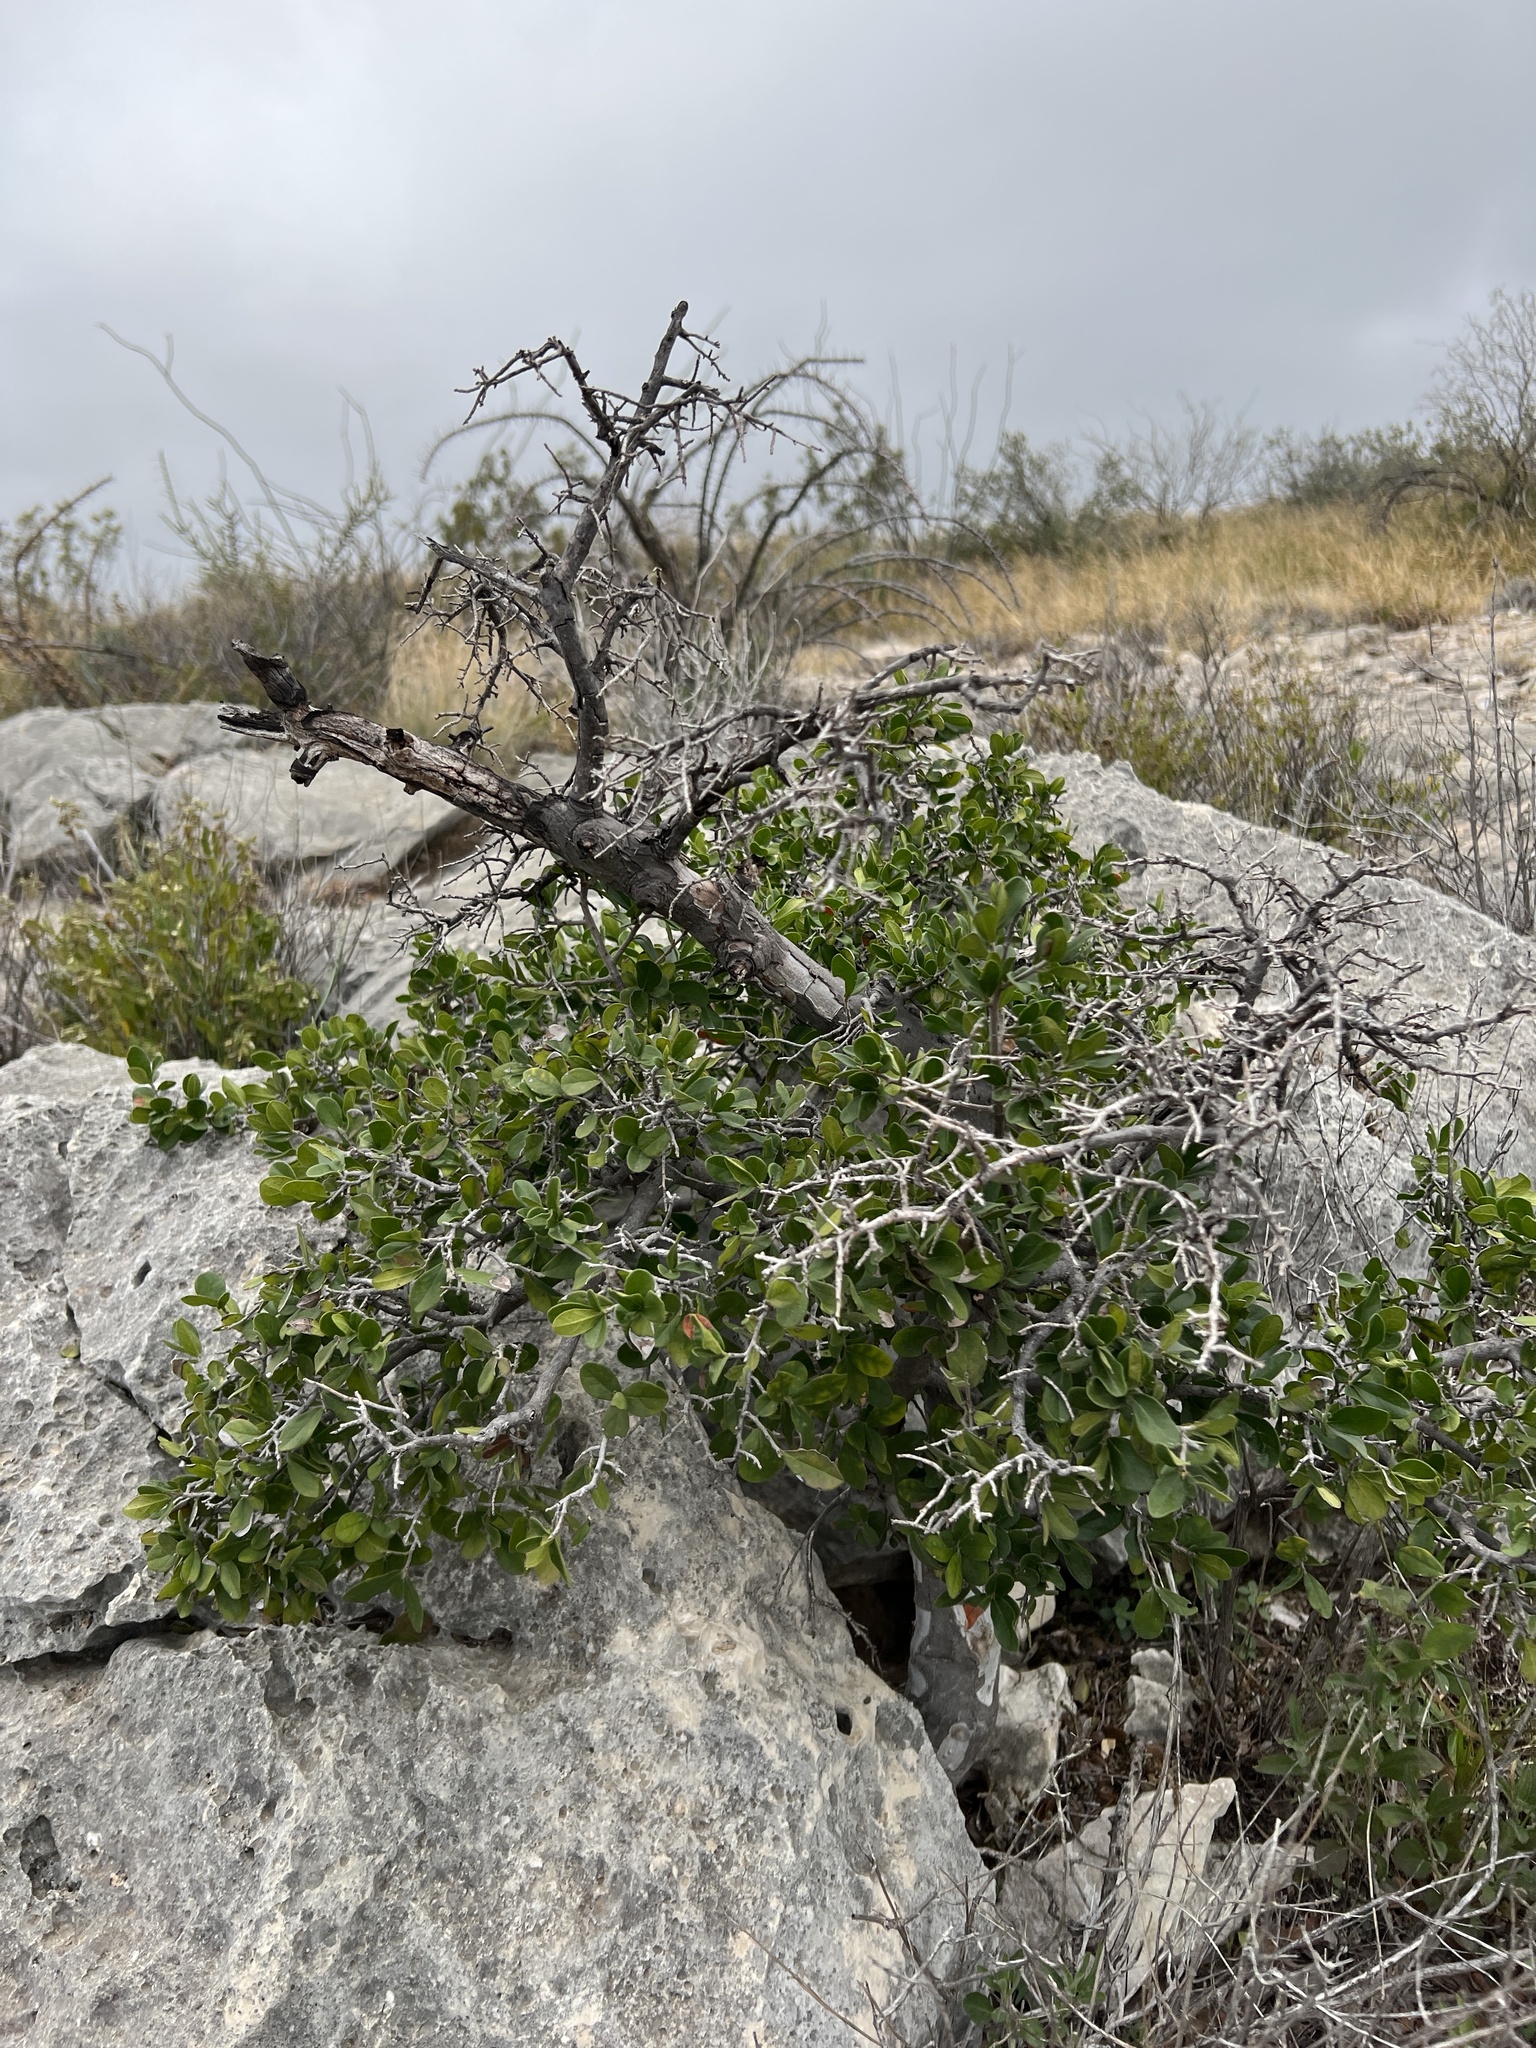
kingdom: Plantae
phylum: Tracheophyta
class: Magnoliopsida
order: Ericales
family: Ebenaceae
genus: Diospyros
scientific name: Diospyros texana
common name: Texas persimmon
